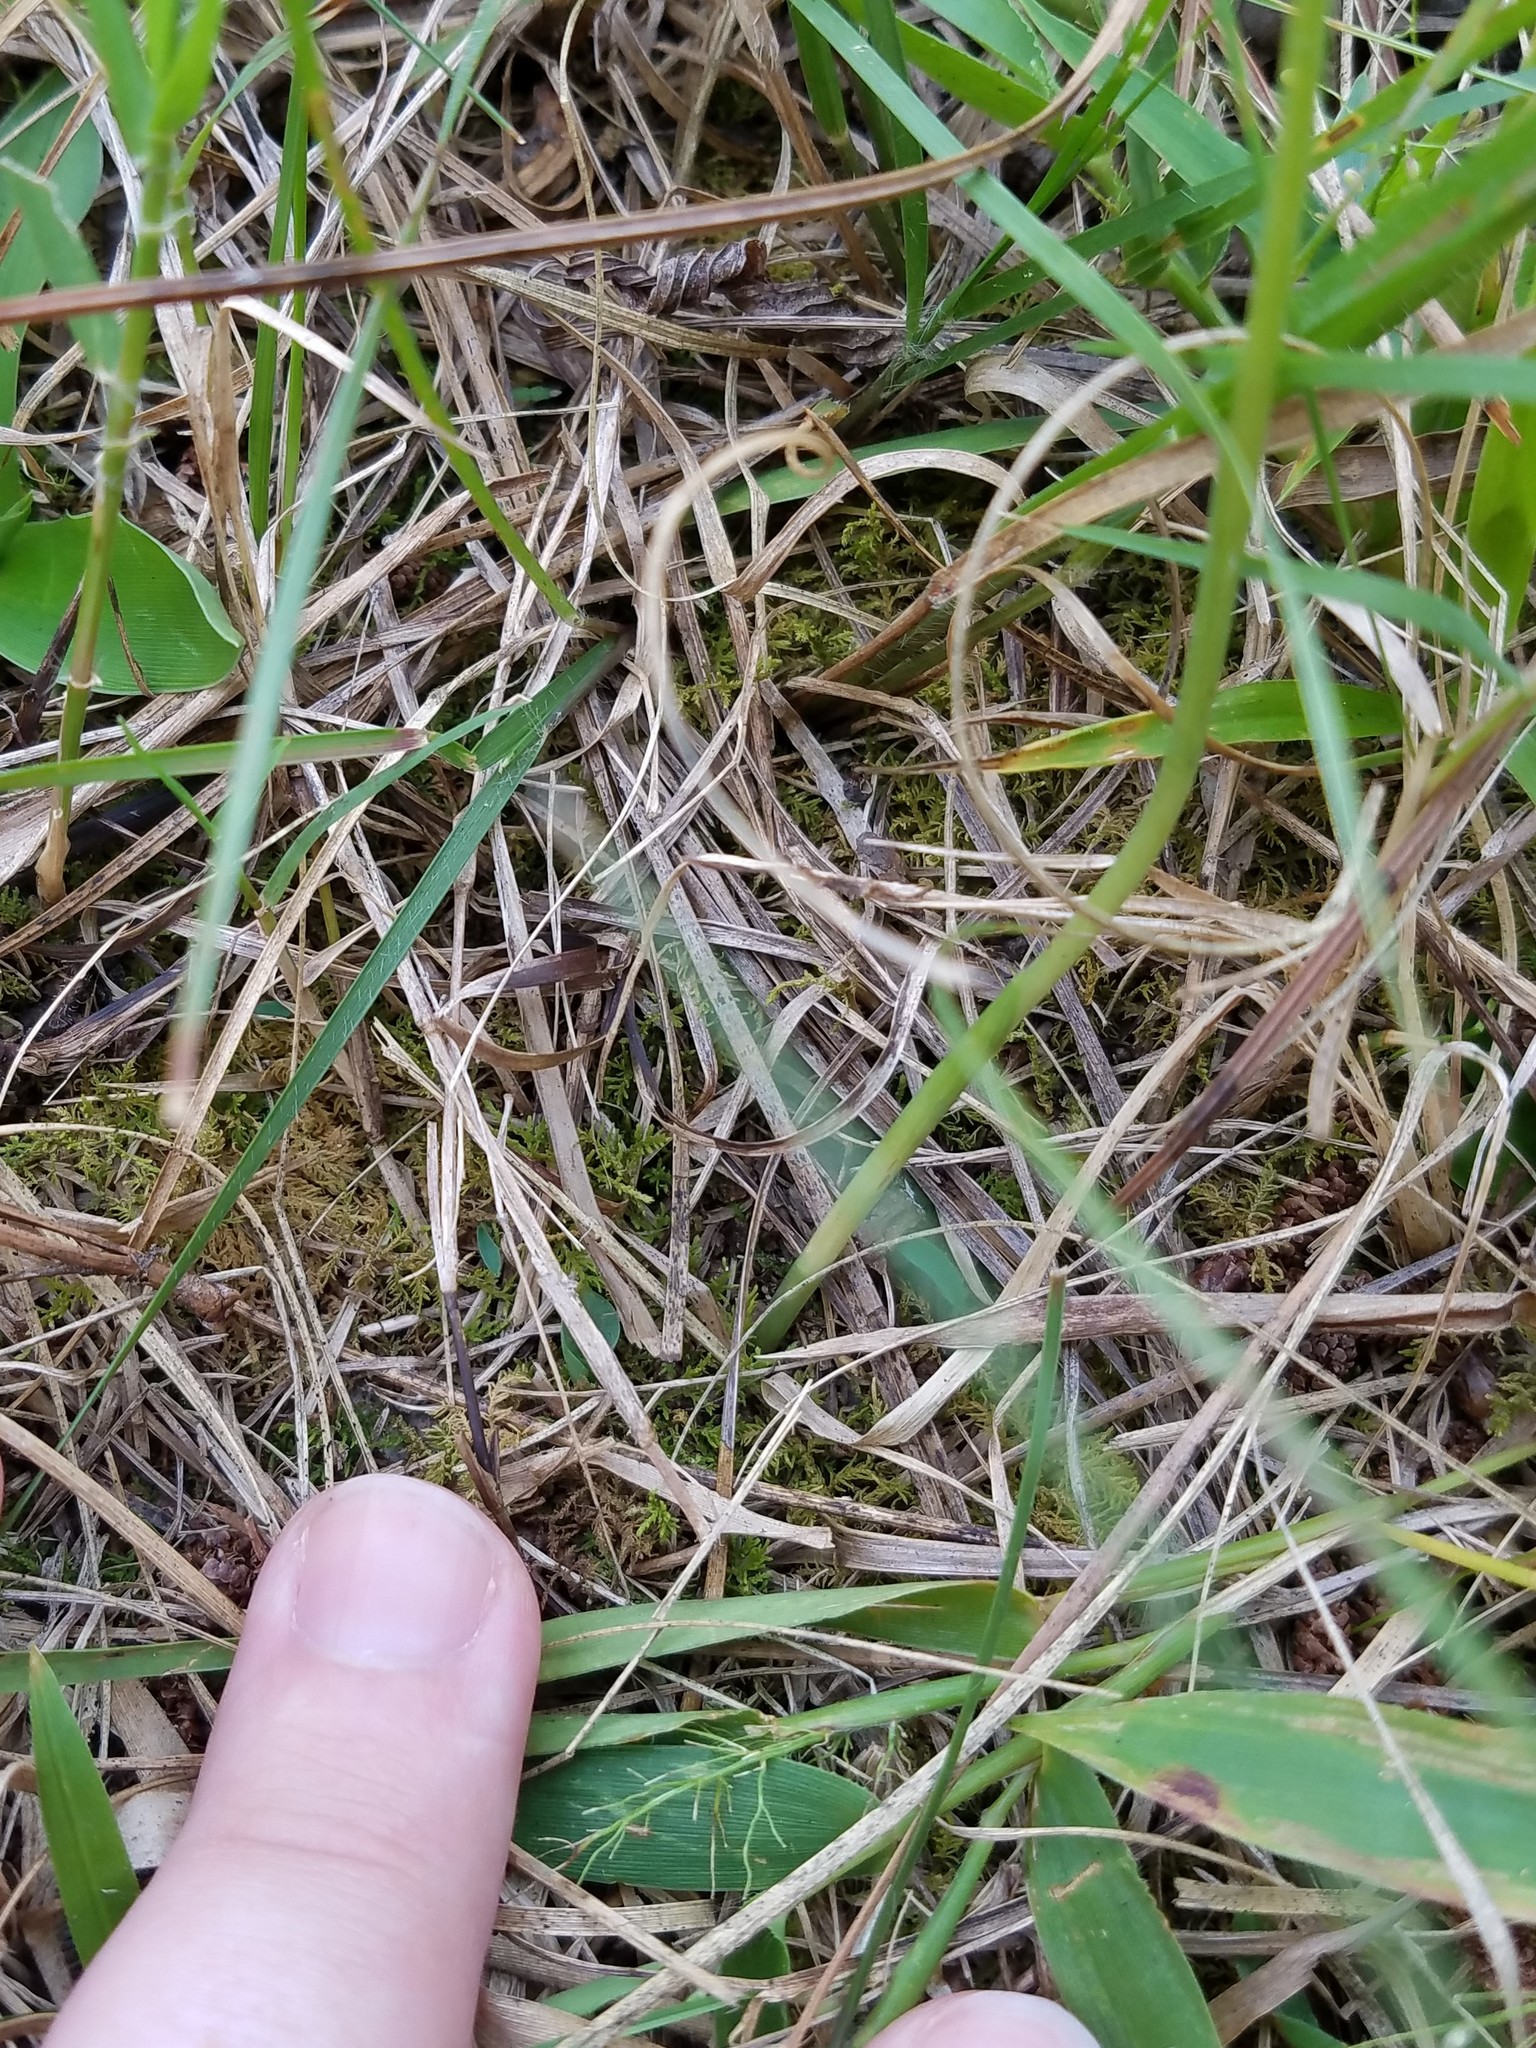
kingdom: Plantae
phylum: Tracheophyta
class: Liliopsida
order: Asparagales
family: Orchidaceae
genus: Spiranthes
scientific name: Spiranthes lacera
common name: Northern slender ladies'-tresses
